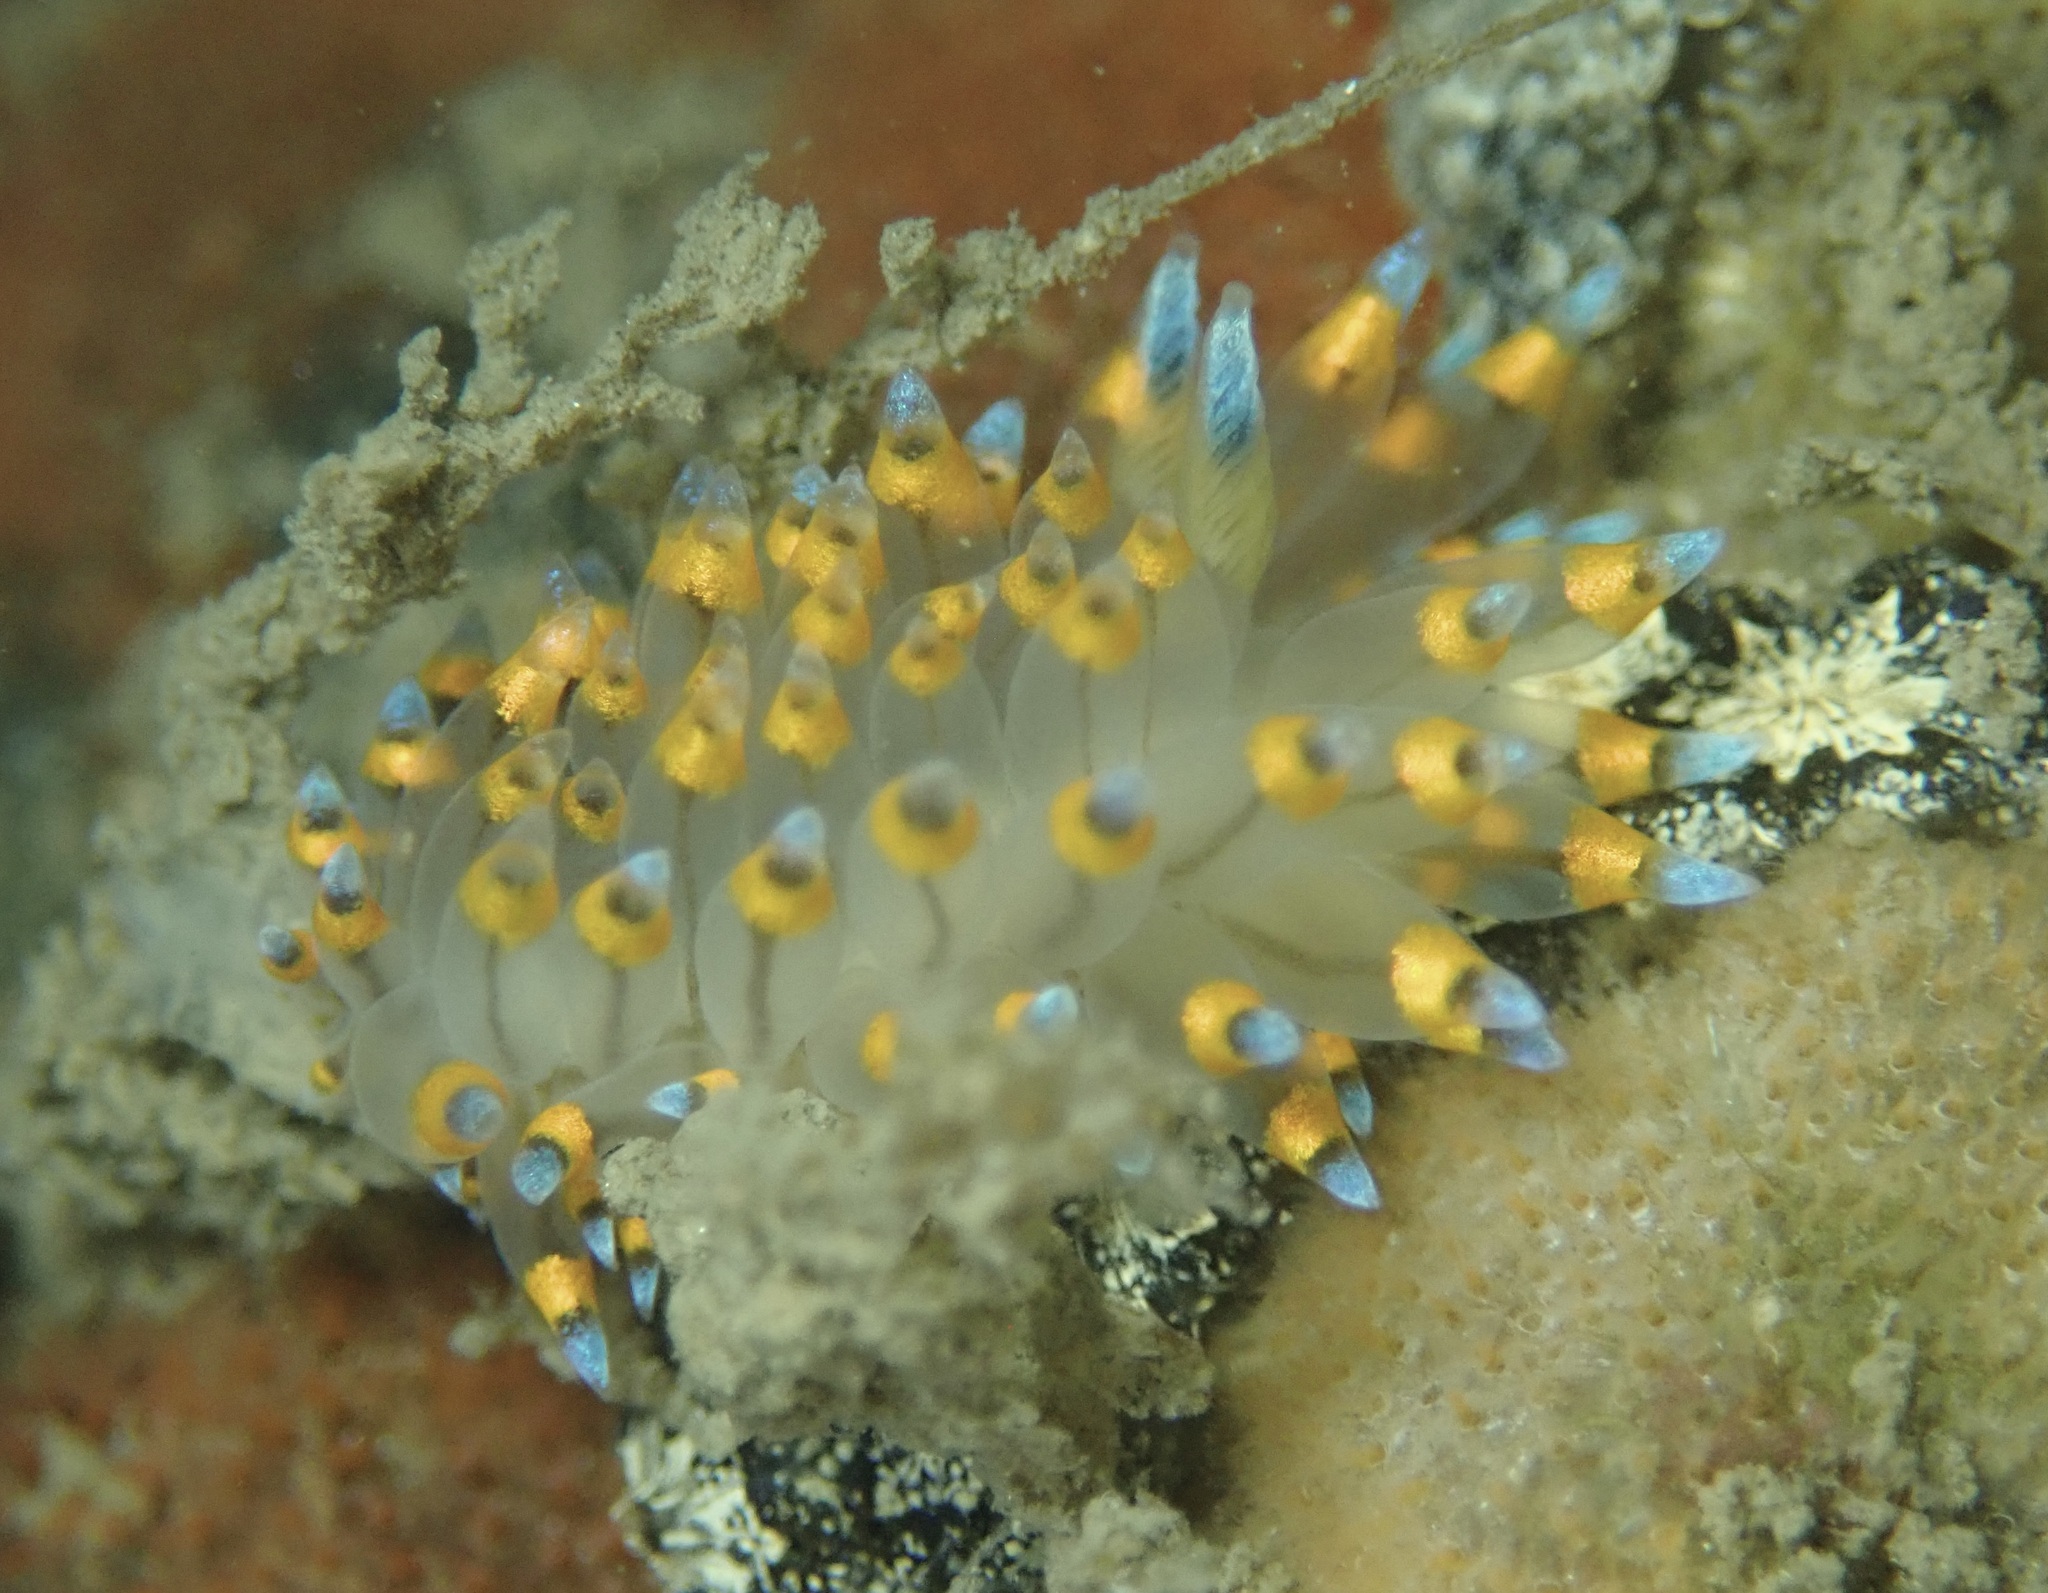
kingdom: Animalia
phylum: Mollusca
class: Gastropoda
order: Nudibranchia
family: Janolidae
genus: Antiopella
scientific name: Antiopella barbarensis
